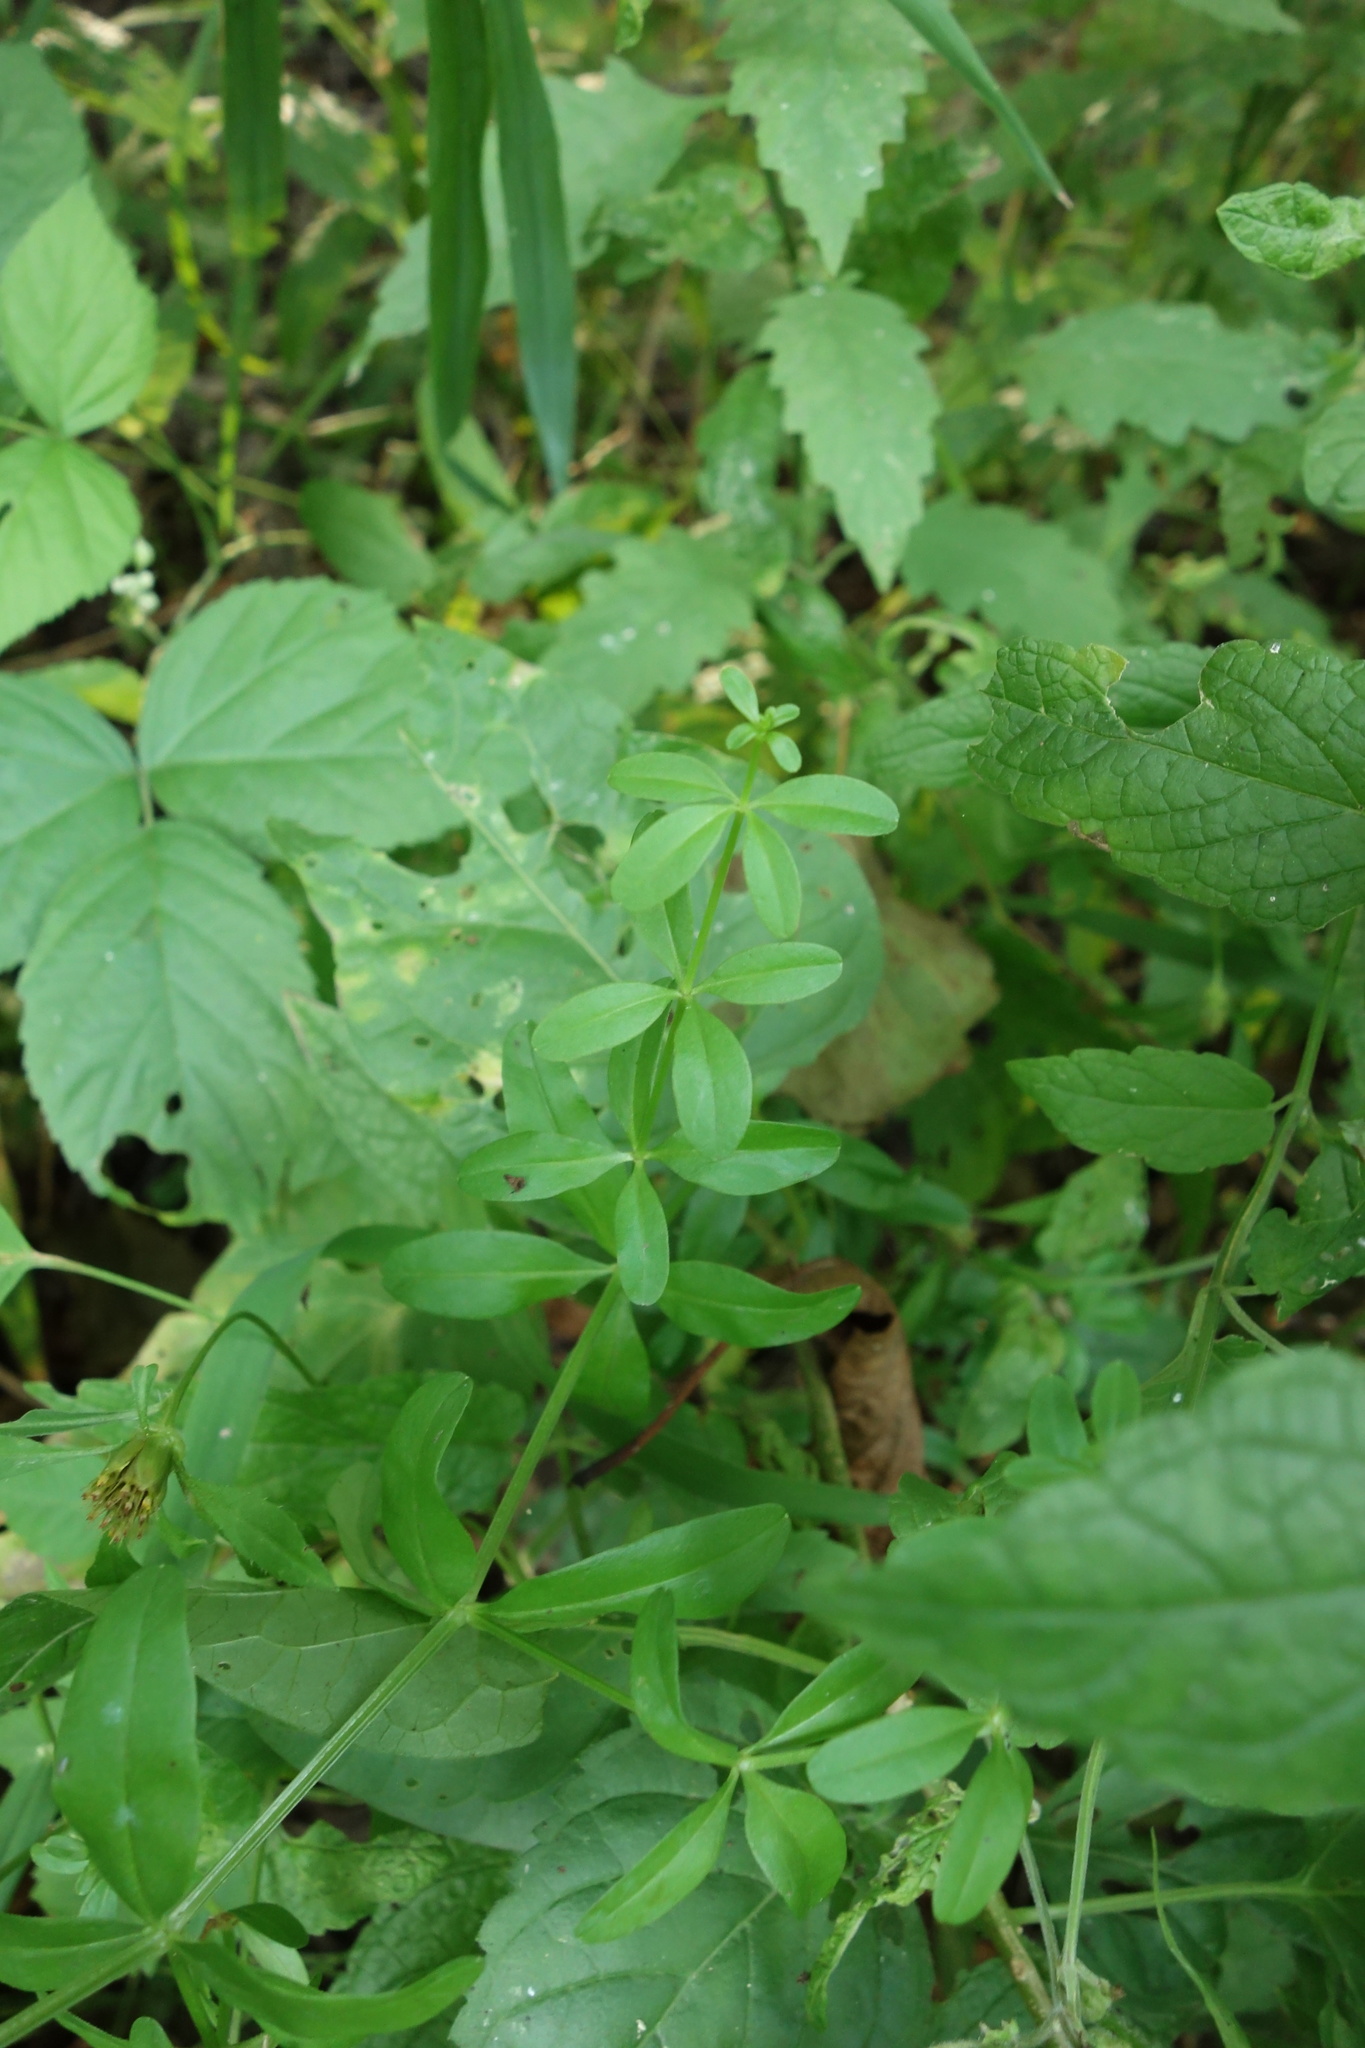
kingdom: Plantae
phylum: Tracheophyta
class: Magnoliopsida
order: Gentianales
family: Rubiaceae
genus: Galium
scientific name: Galium palustre
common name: Common marsh-bedstraw
